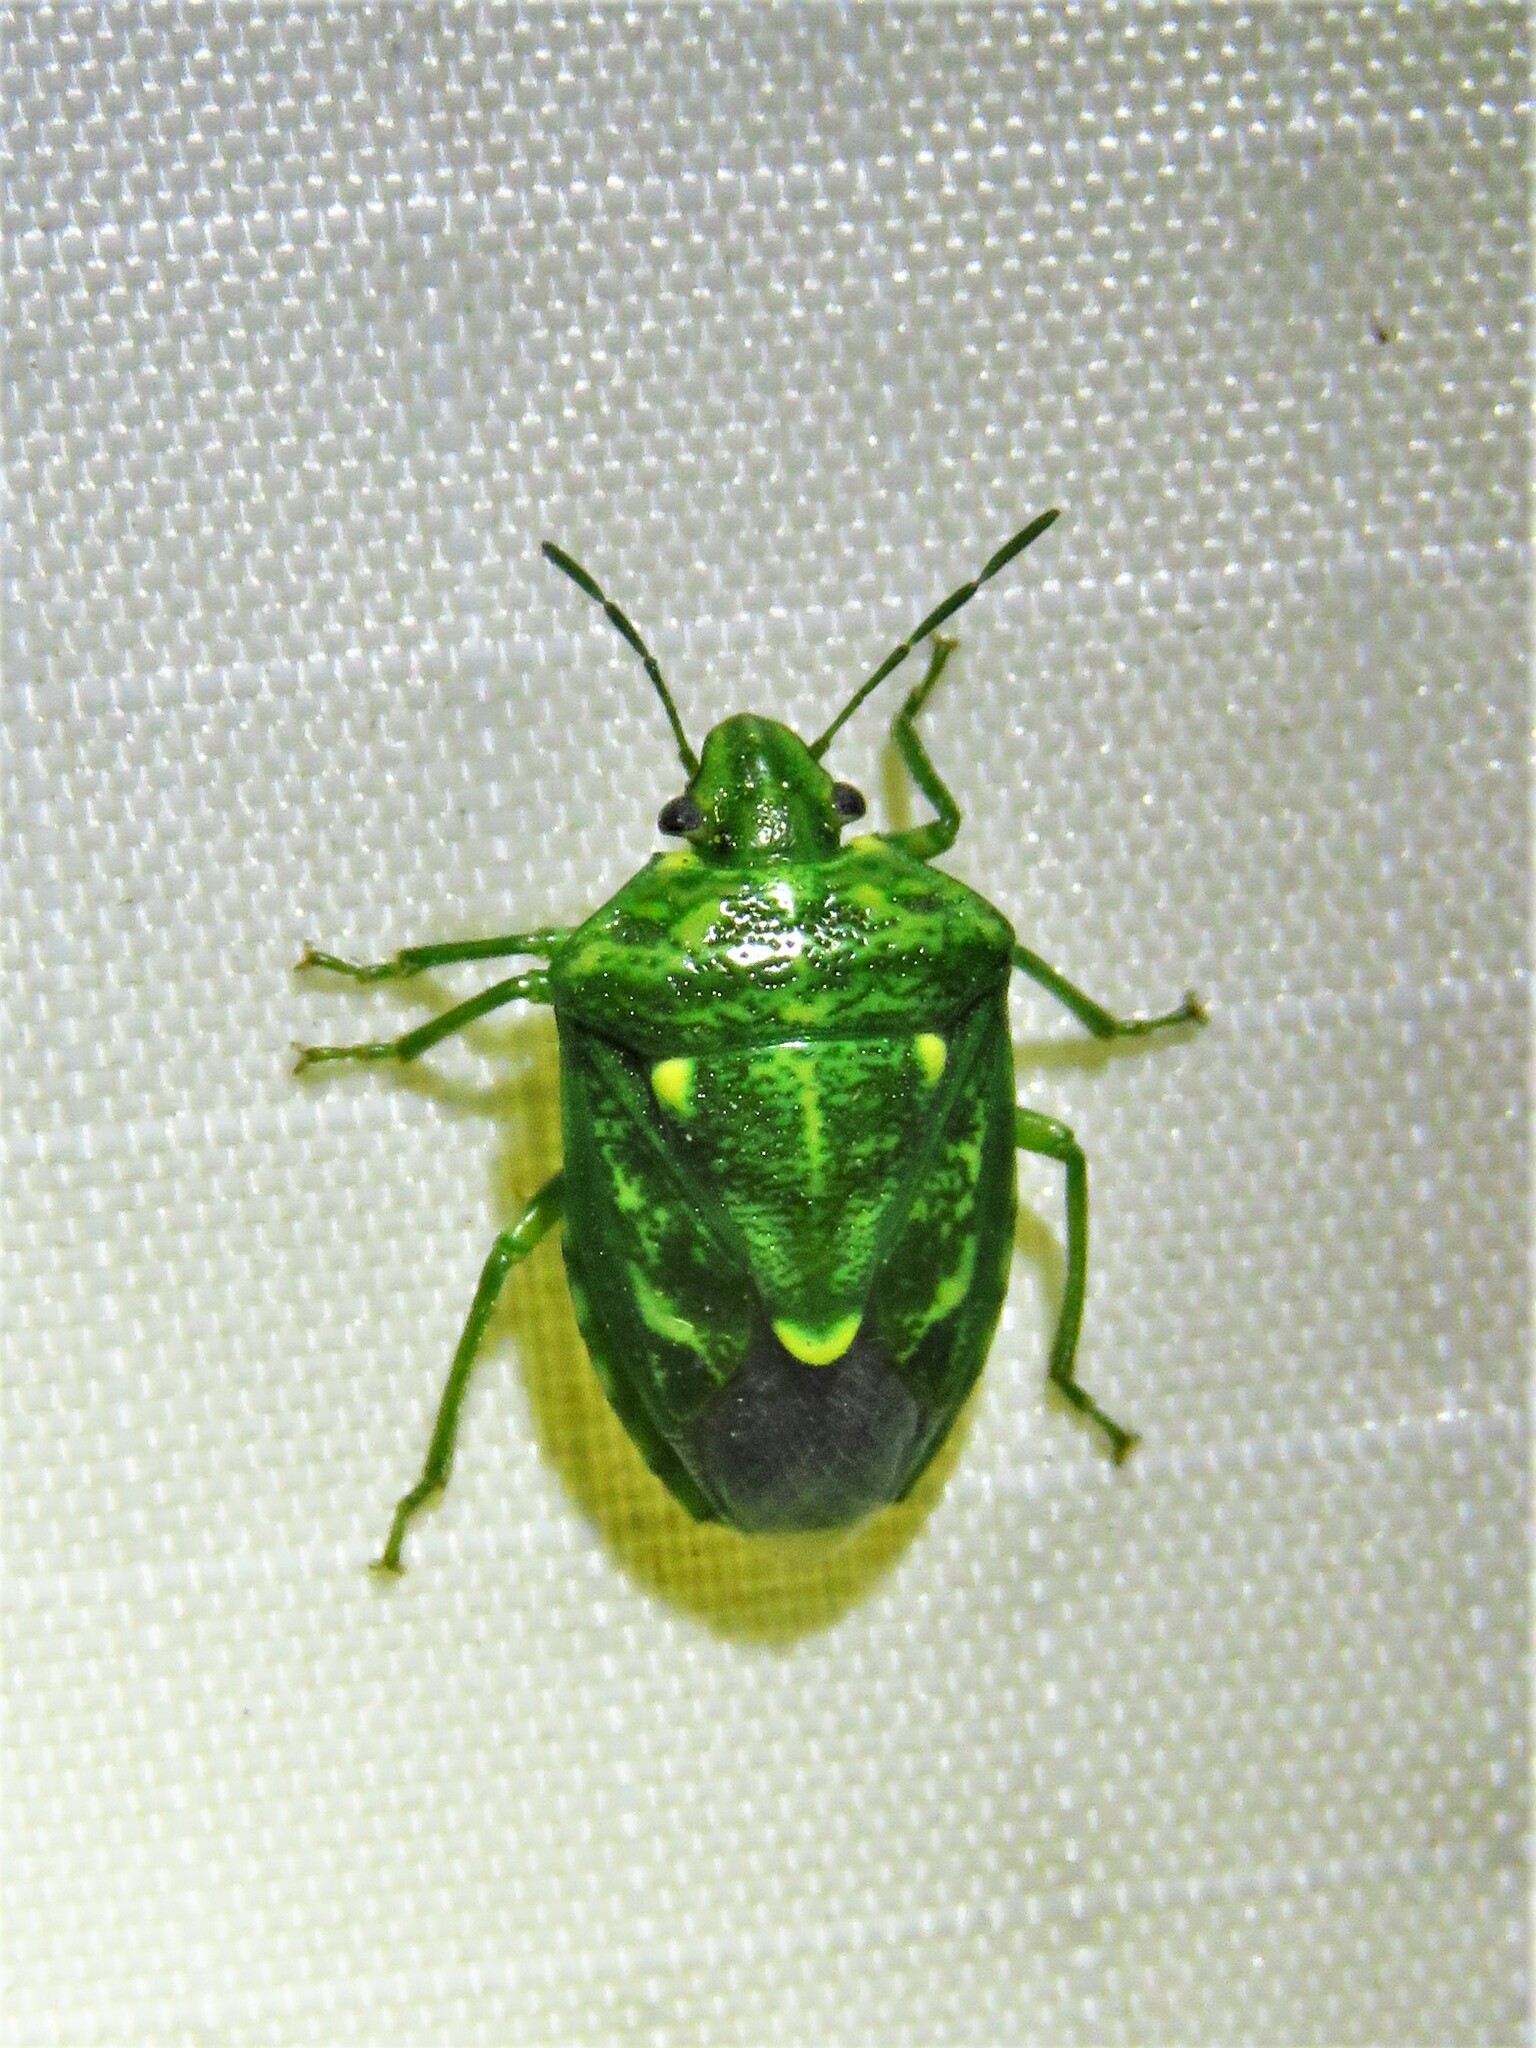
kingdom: Animalia
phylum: Arthropoda
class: Insecta
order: Hemiptera
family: Pentatomidae
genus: Banasa
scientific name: Banasa euchlora
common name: Cedar berry bug
